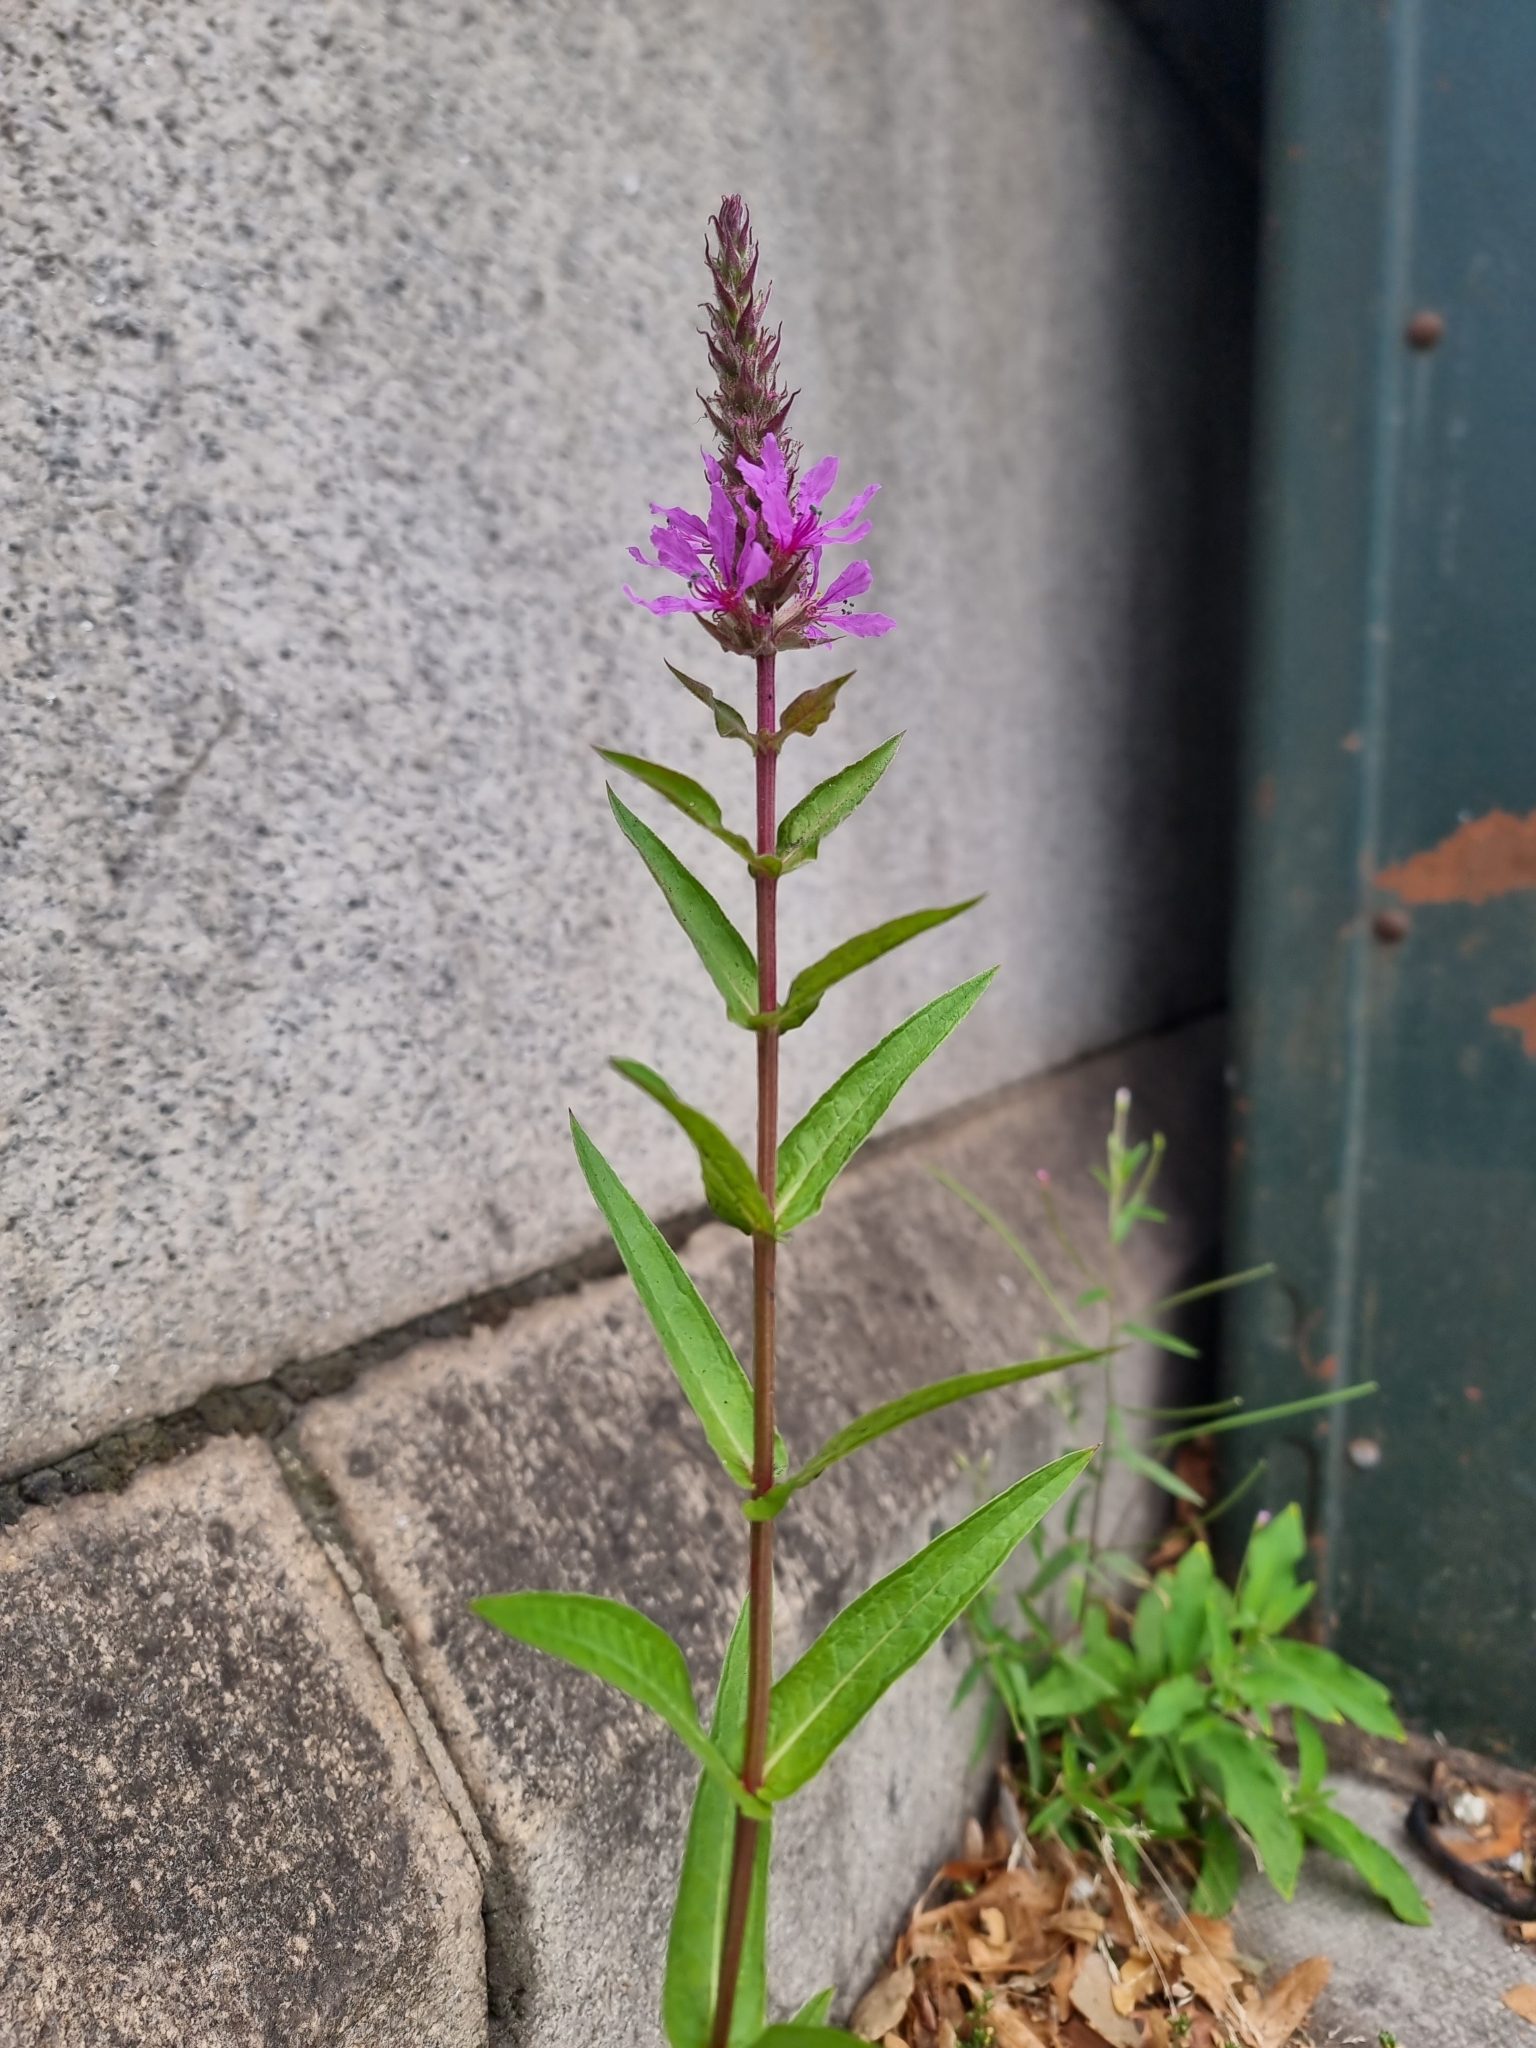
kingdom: Plantae
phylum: Tracheophyta
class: Magnoliopsida
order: Myrtales
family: Lythraceae
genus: Lythrum
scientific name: Lythrum salicaria
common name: Purple loosestrife
